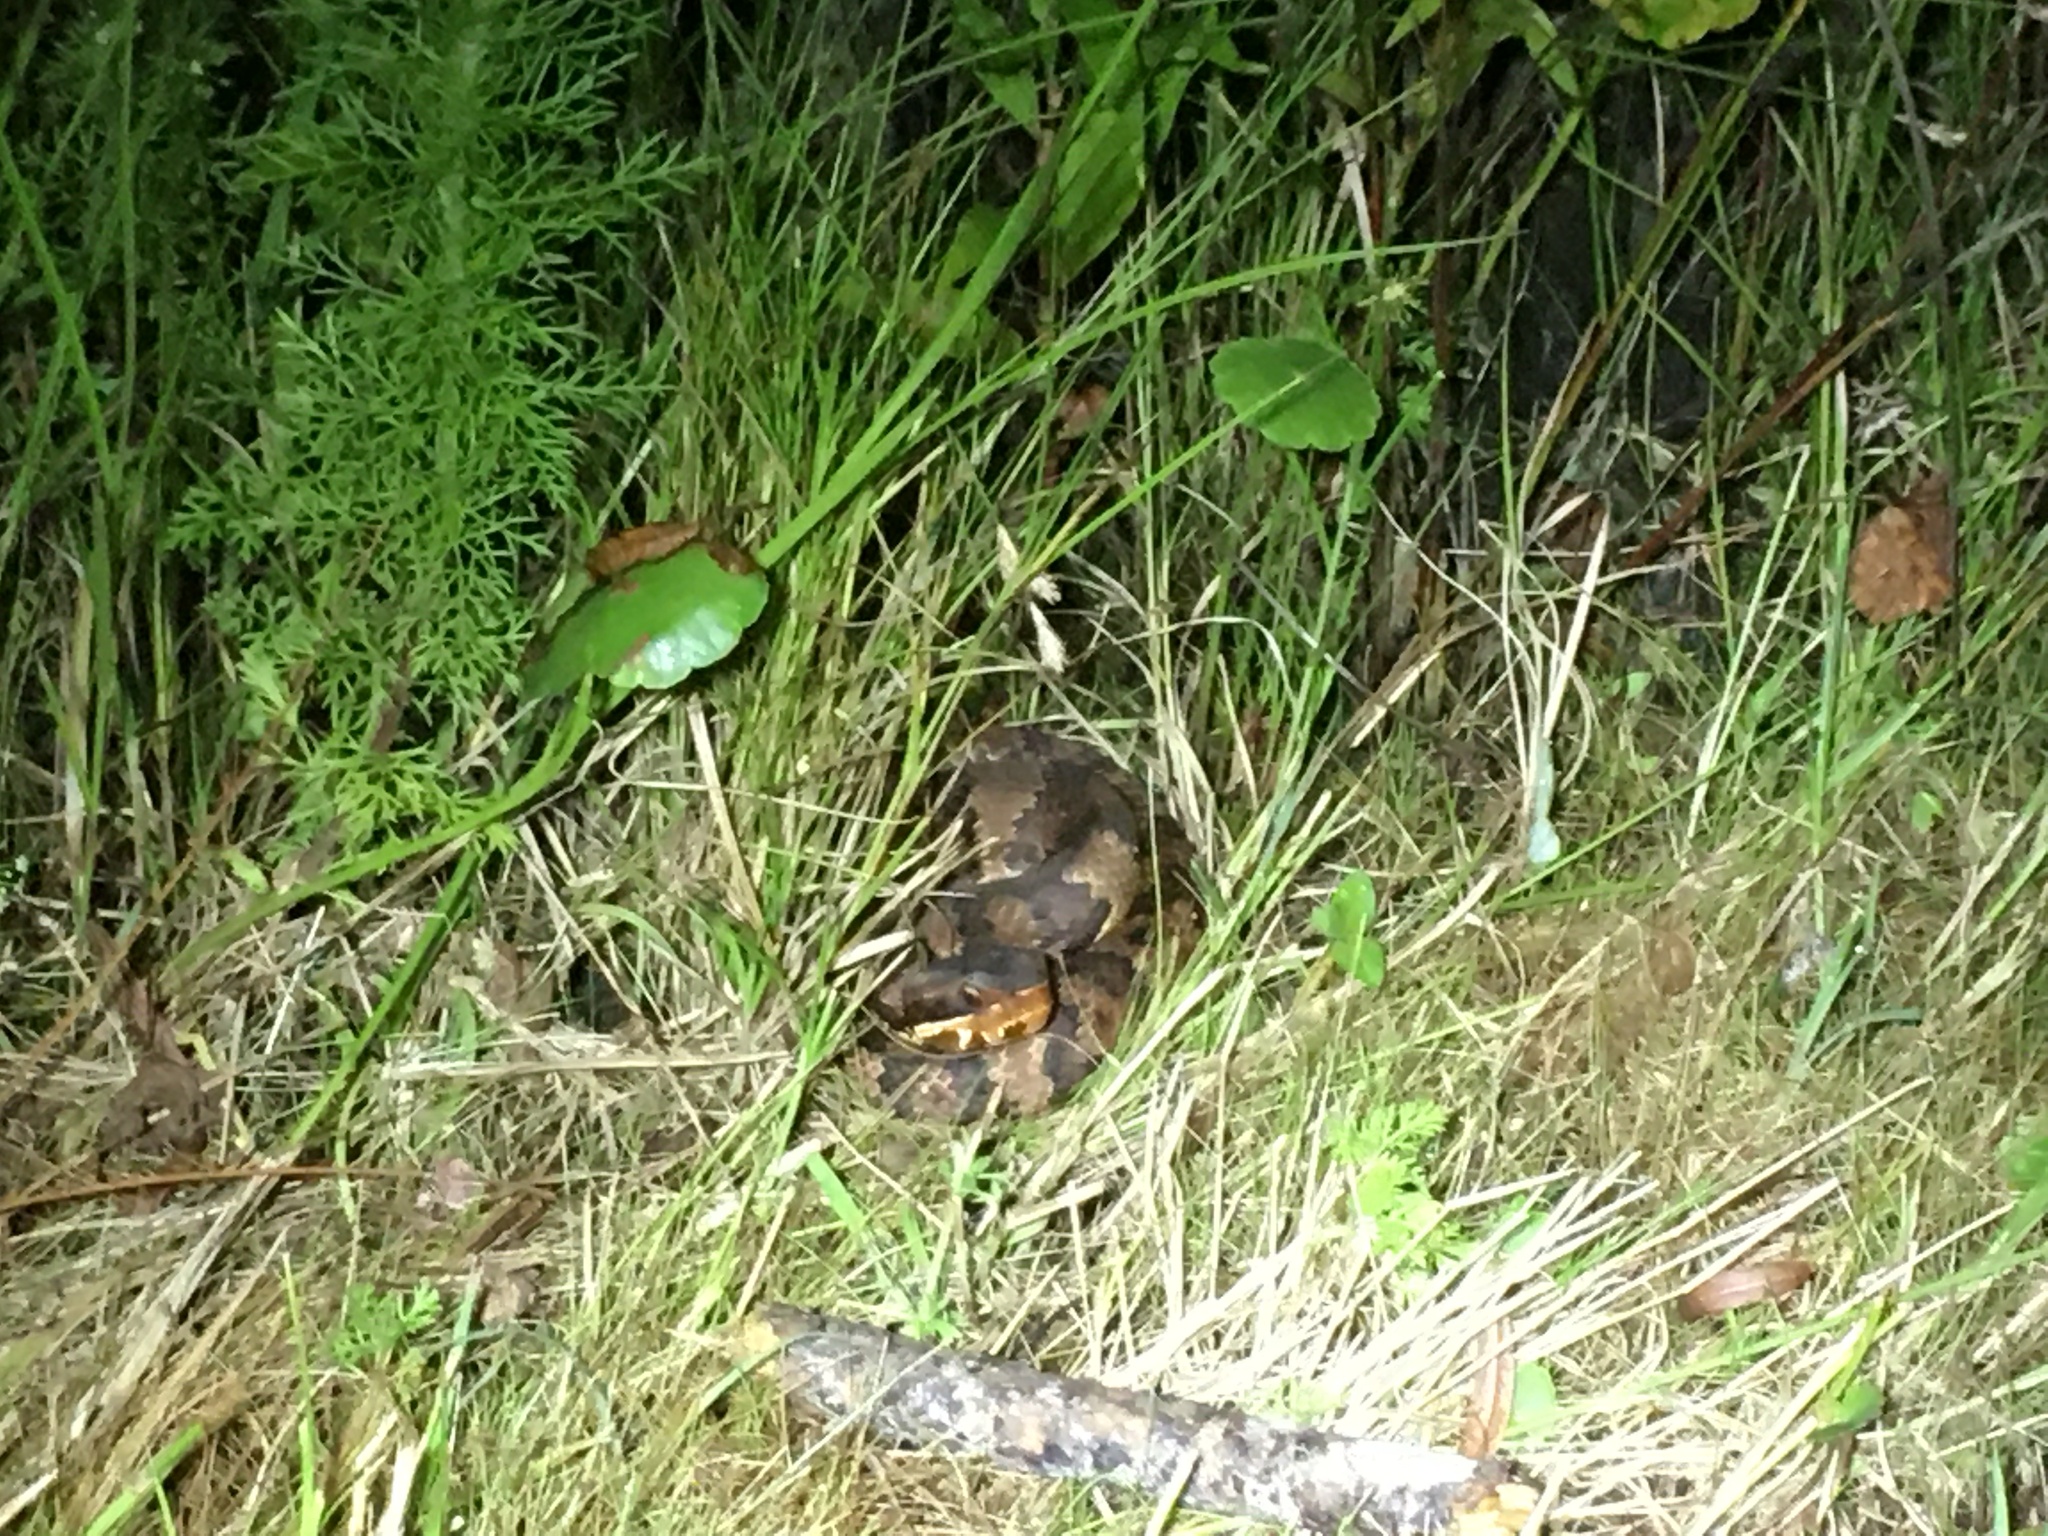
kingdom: Animalia
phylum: Chordata
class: Squamata
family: Viperidae
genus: Agkistrodon
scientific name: Agkistrodon piscivorus
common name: Cottonmouth
